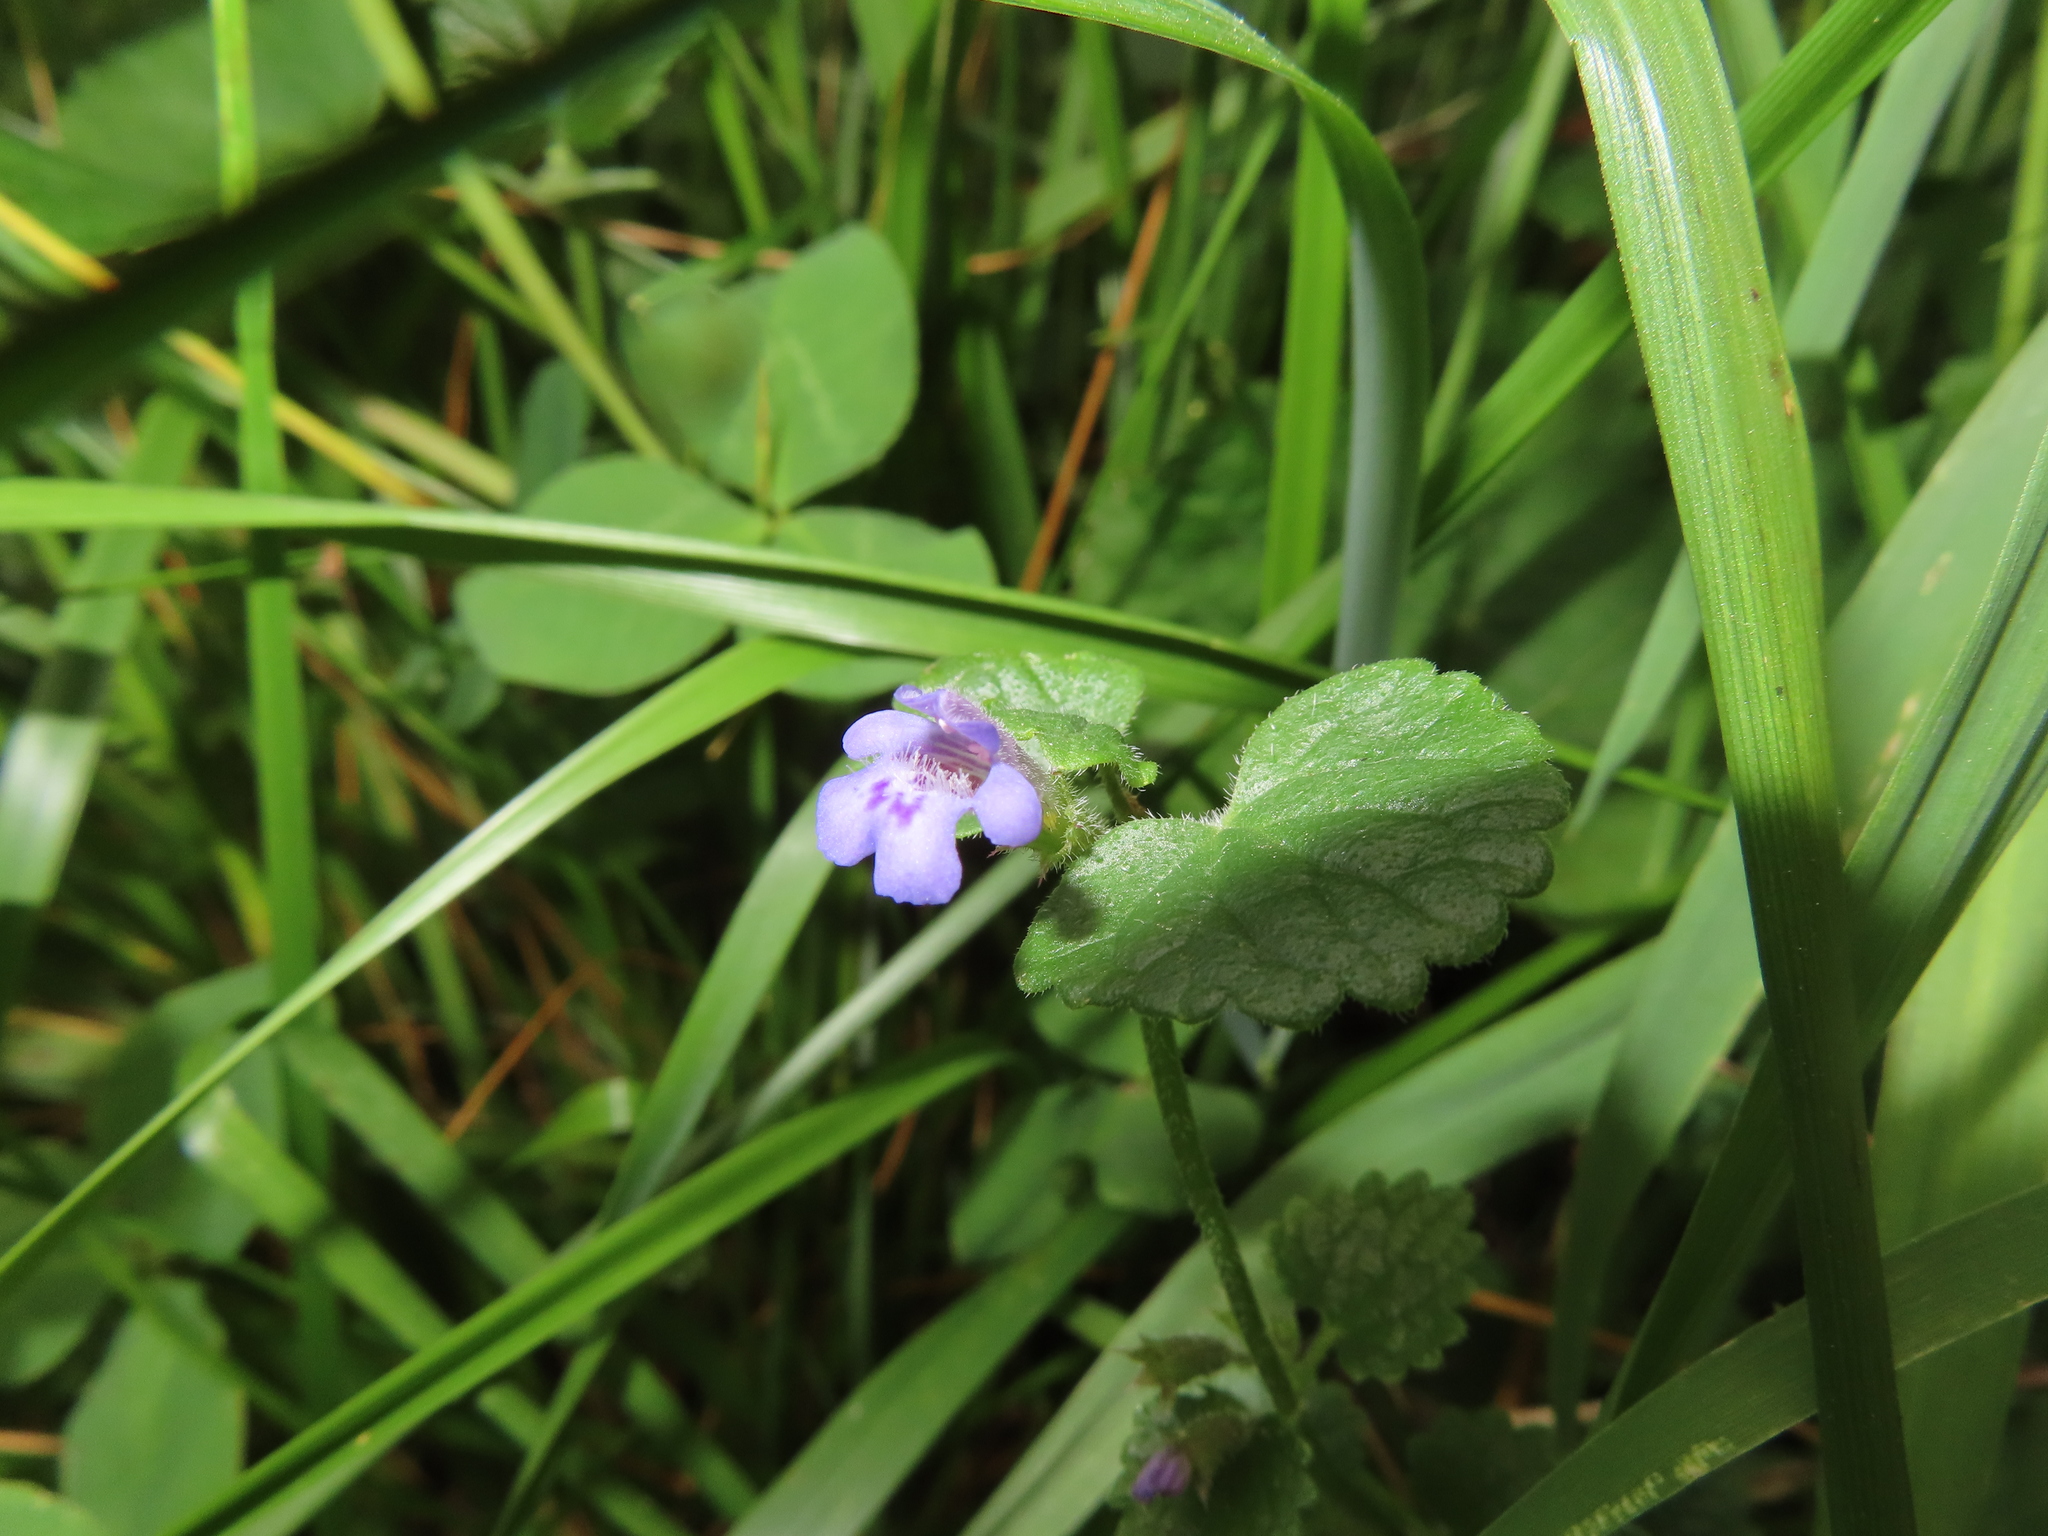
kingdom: Plantae
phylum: Tracheophyta
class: Magnoliopsida
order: Lamiales
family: Lamiaceae
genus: Glechoma
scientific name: Glechoma hederacea
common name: Ground ivy
